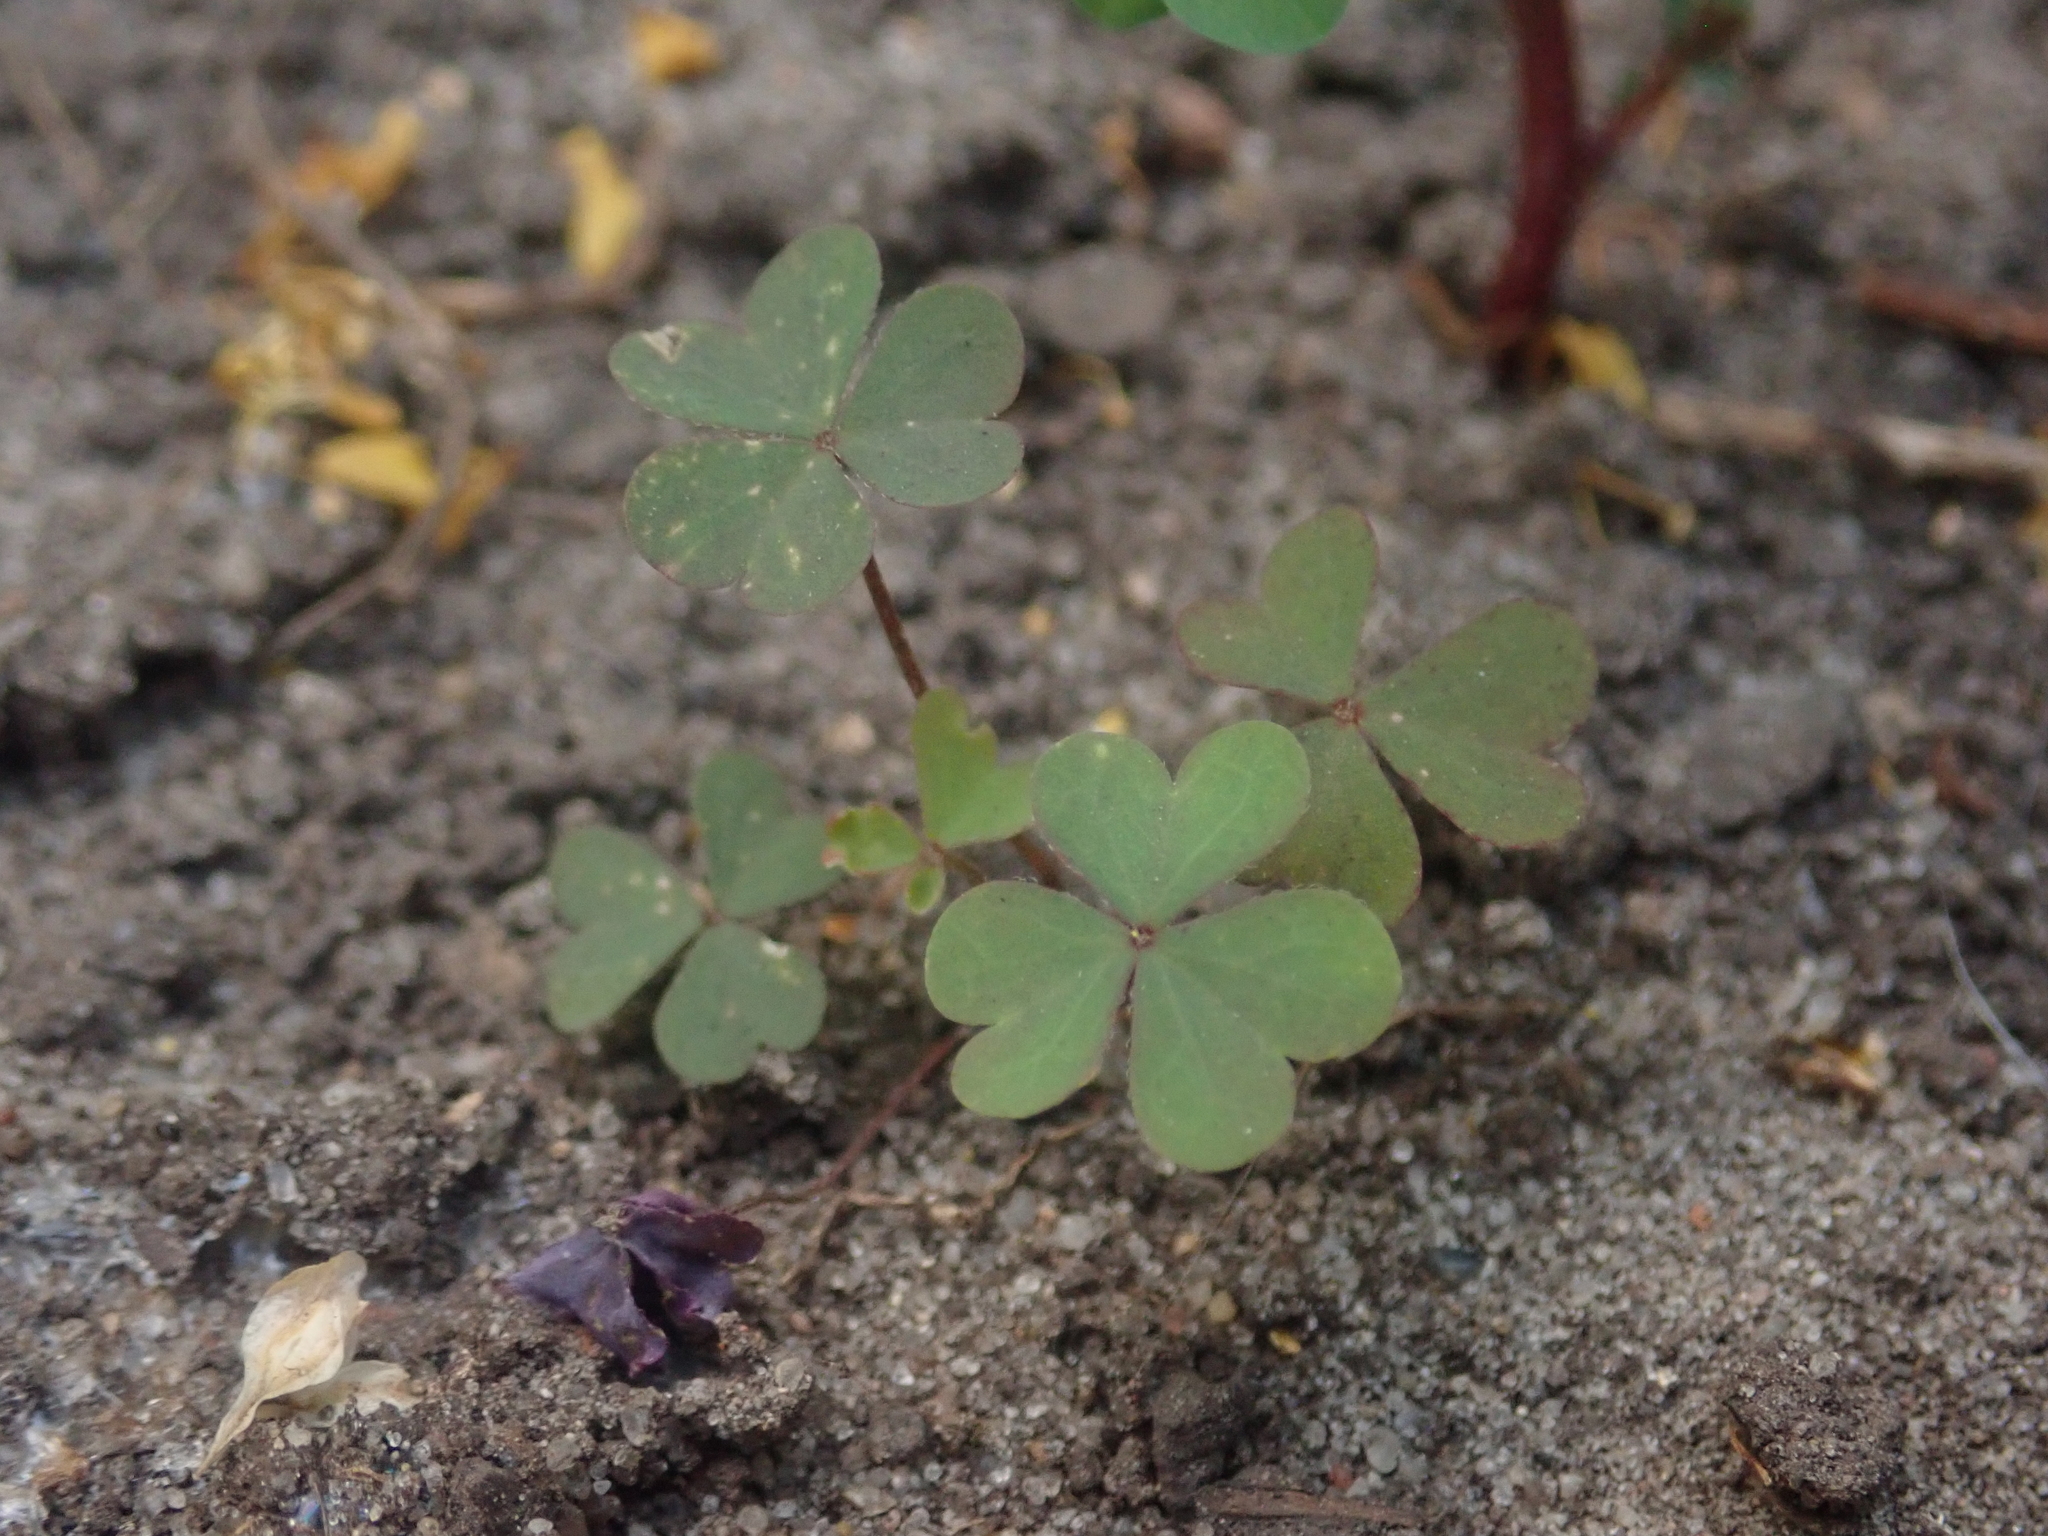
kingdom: Plantae
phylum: Tracheophyta
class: Magnoliopsida
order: Oxalidales
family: Oxalidaceae
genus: Oxalis
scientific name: Oxalis corniculata
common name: Procumbent yellow-sorrel
